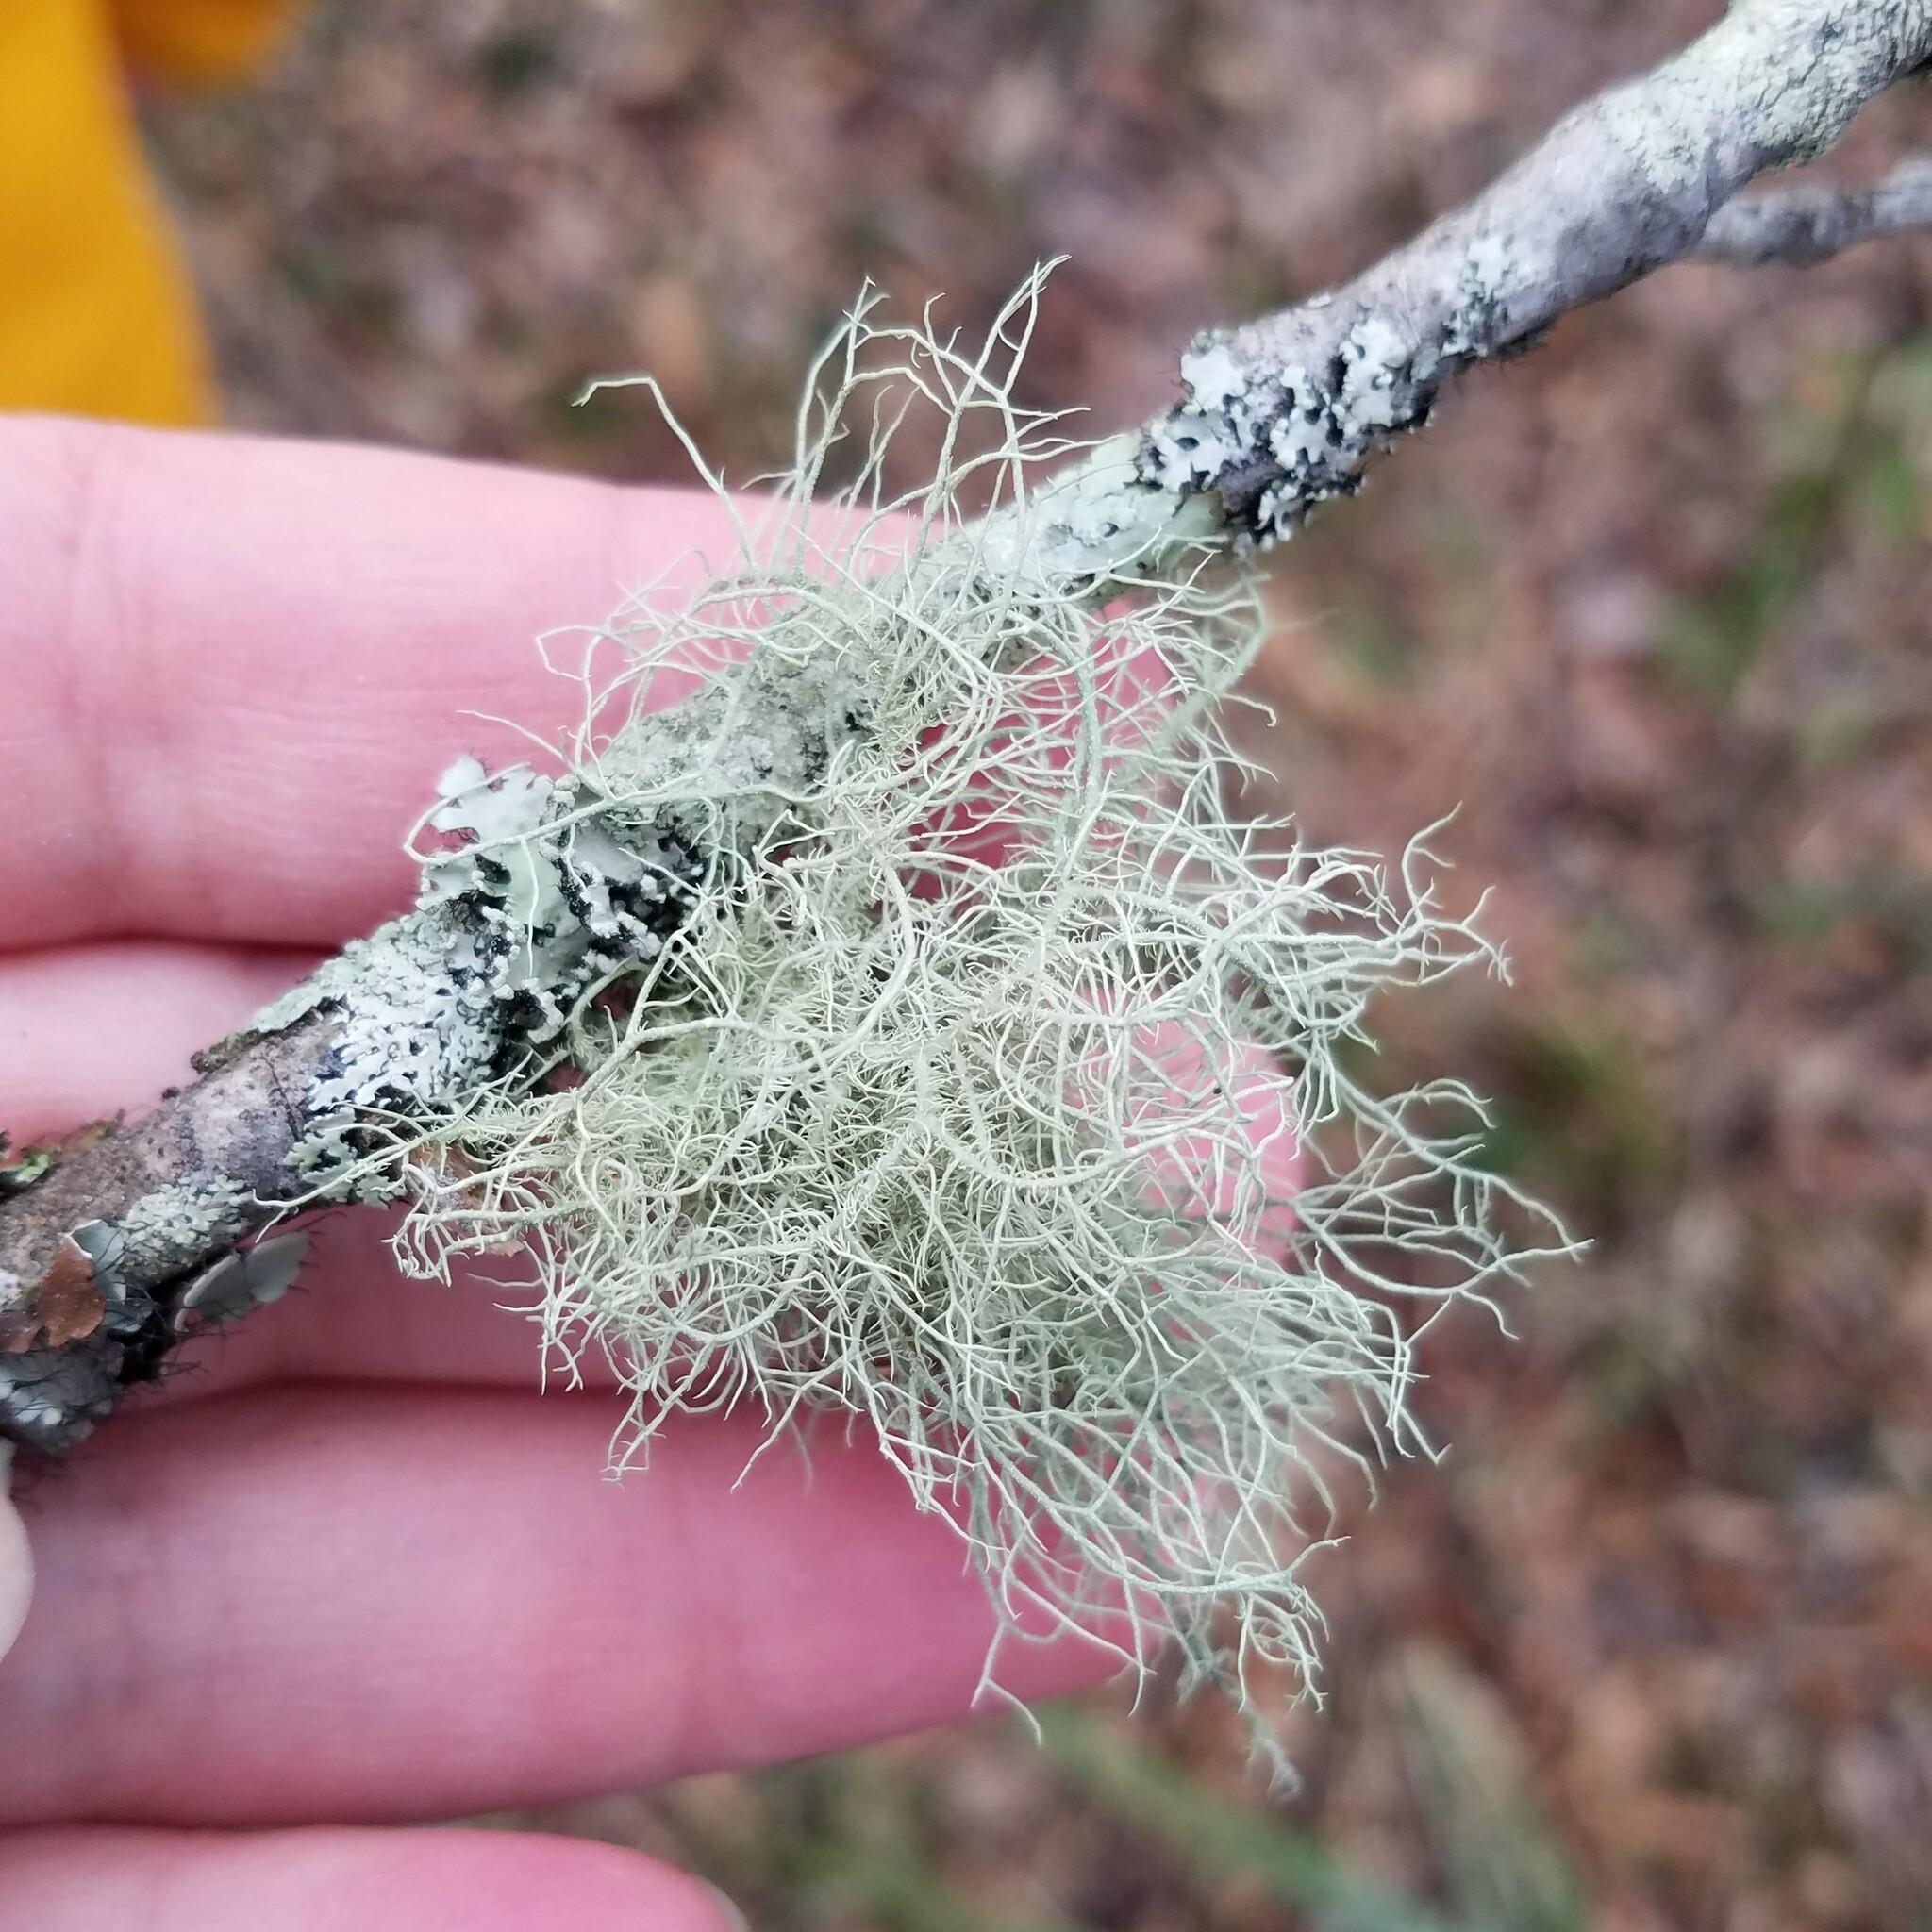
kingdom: Fungi
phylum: Ascomycota
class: Lecanoromycetes
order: Lecanorales
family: Parmeliaceae
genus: Usnea
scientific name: Usnea mutabilis
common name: Bloody beard
